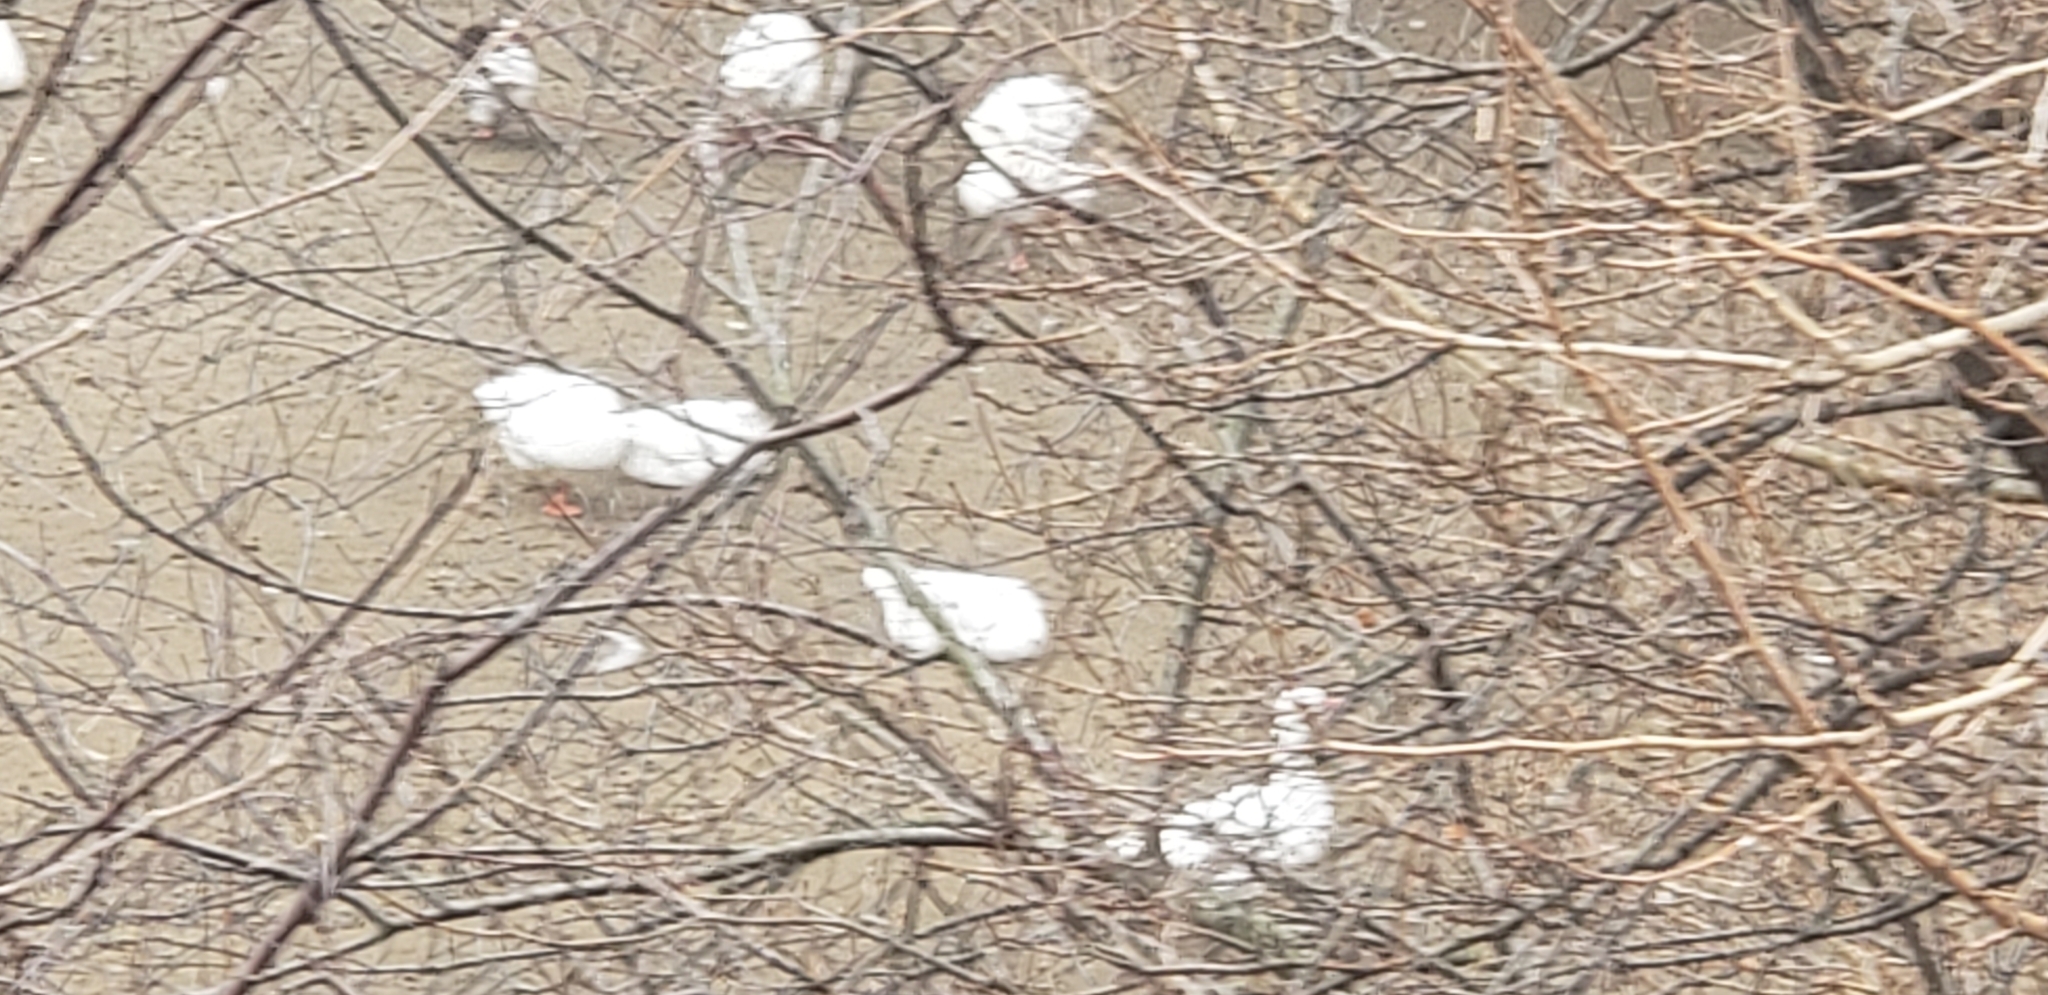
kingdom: Animalia
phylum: Chordata
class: Aves
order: Anseriformes
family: Anatidae
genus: Anser
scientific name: Anser anser
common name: Greylag goose
